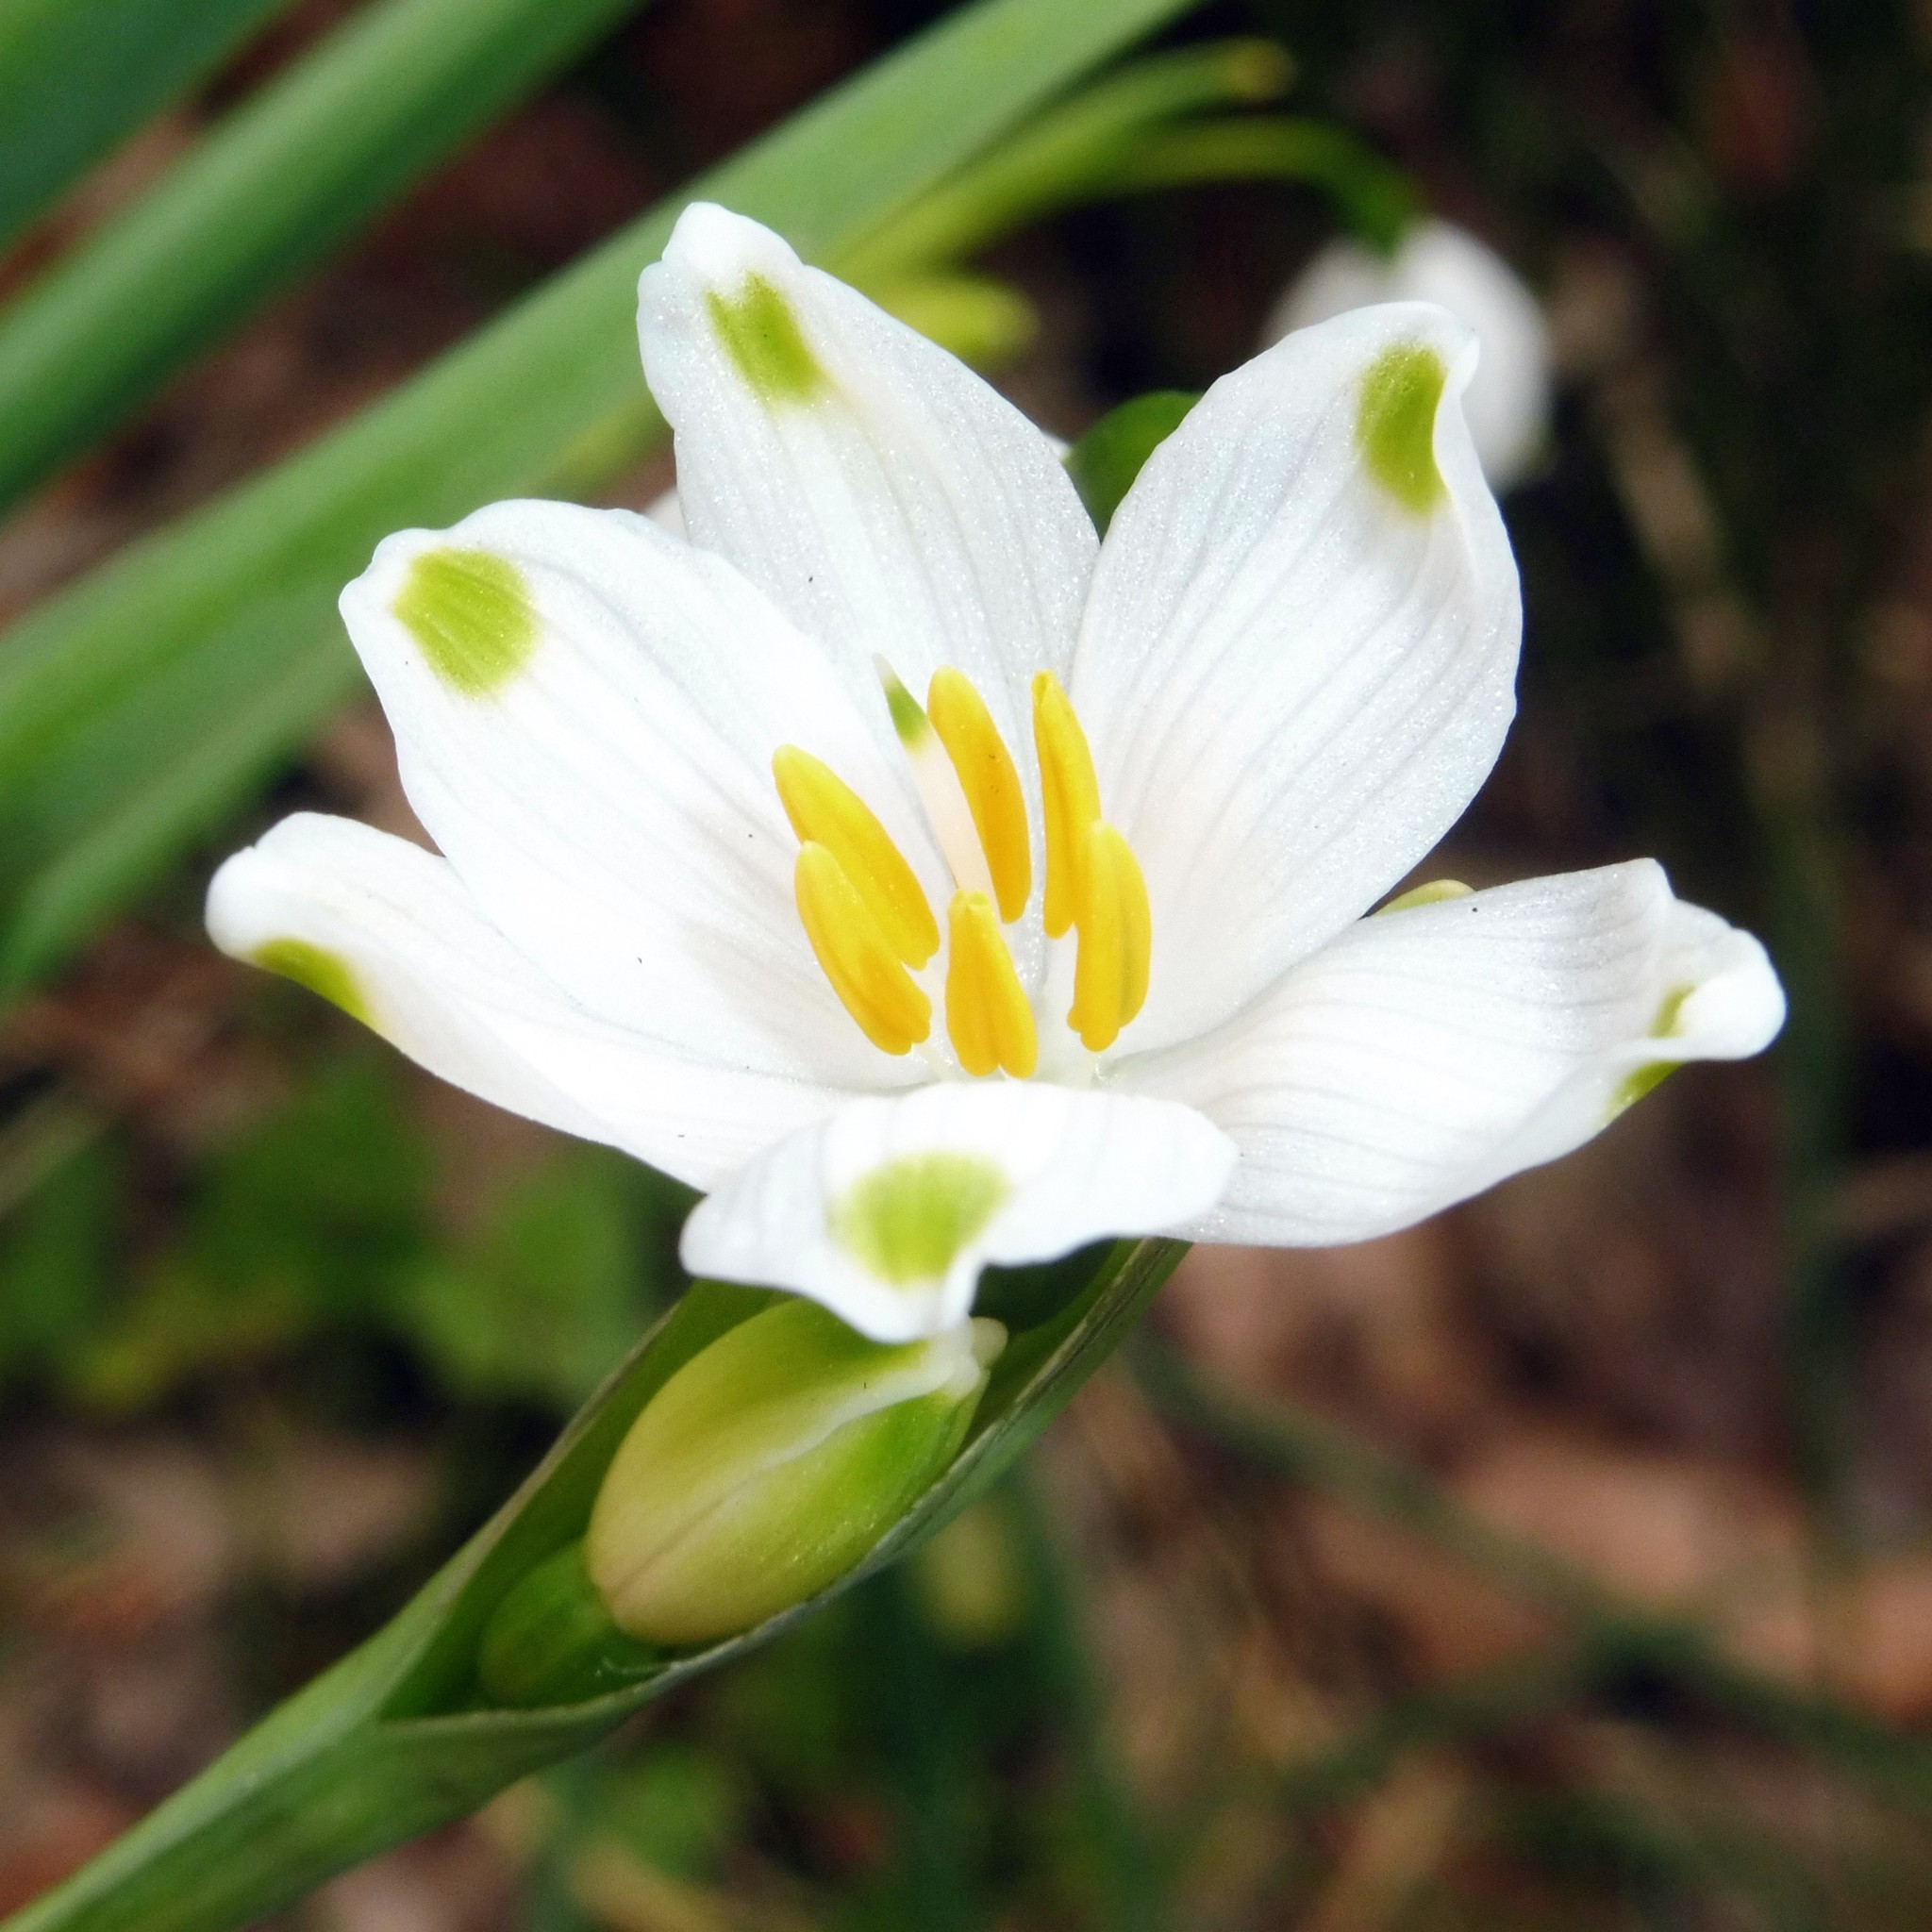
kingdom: Plantae
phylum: Tracheophyta
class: Liliopsida
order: Asparagales
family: Amaryllidaceae
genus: Leucojum
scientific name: Leucojum aestivum
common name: Summer snowflake
